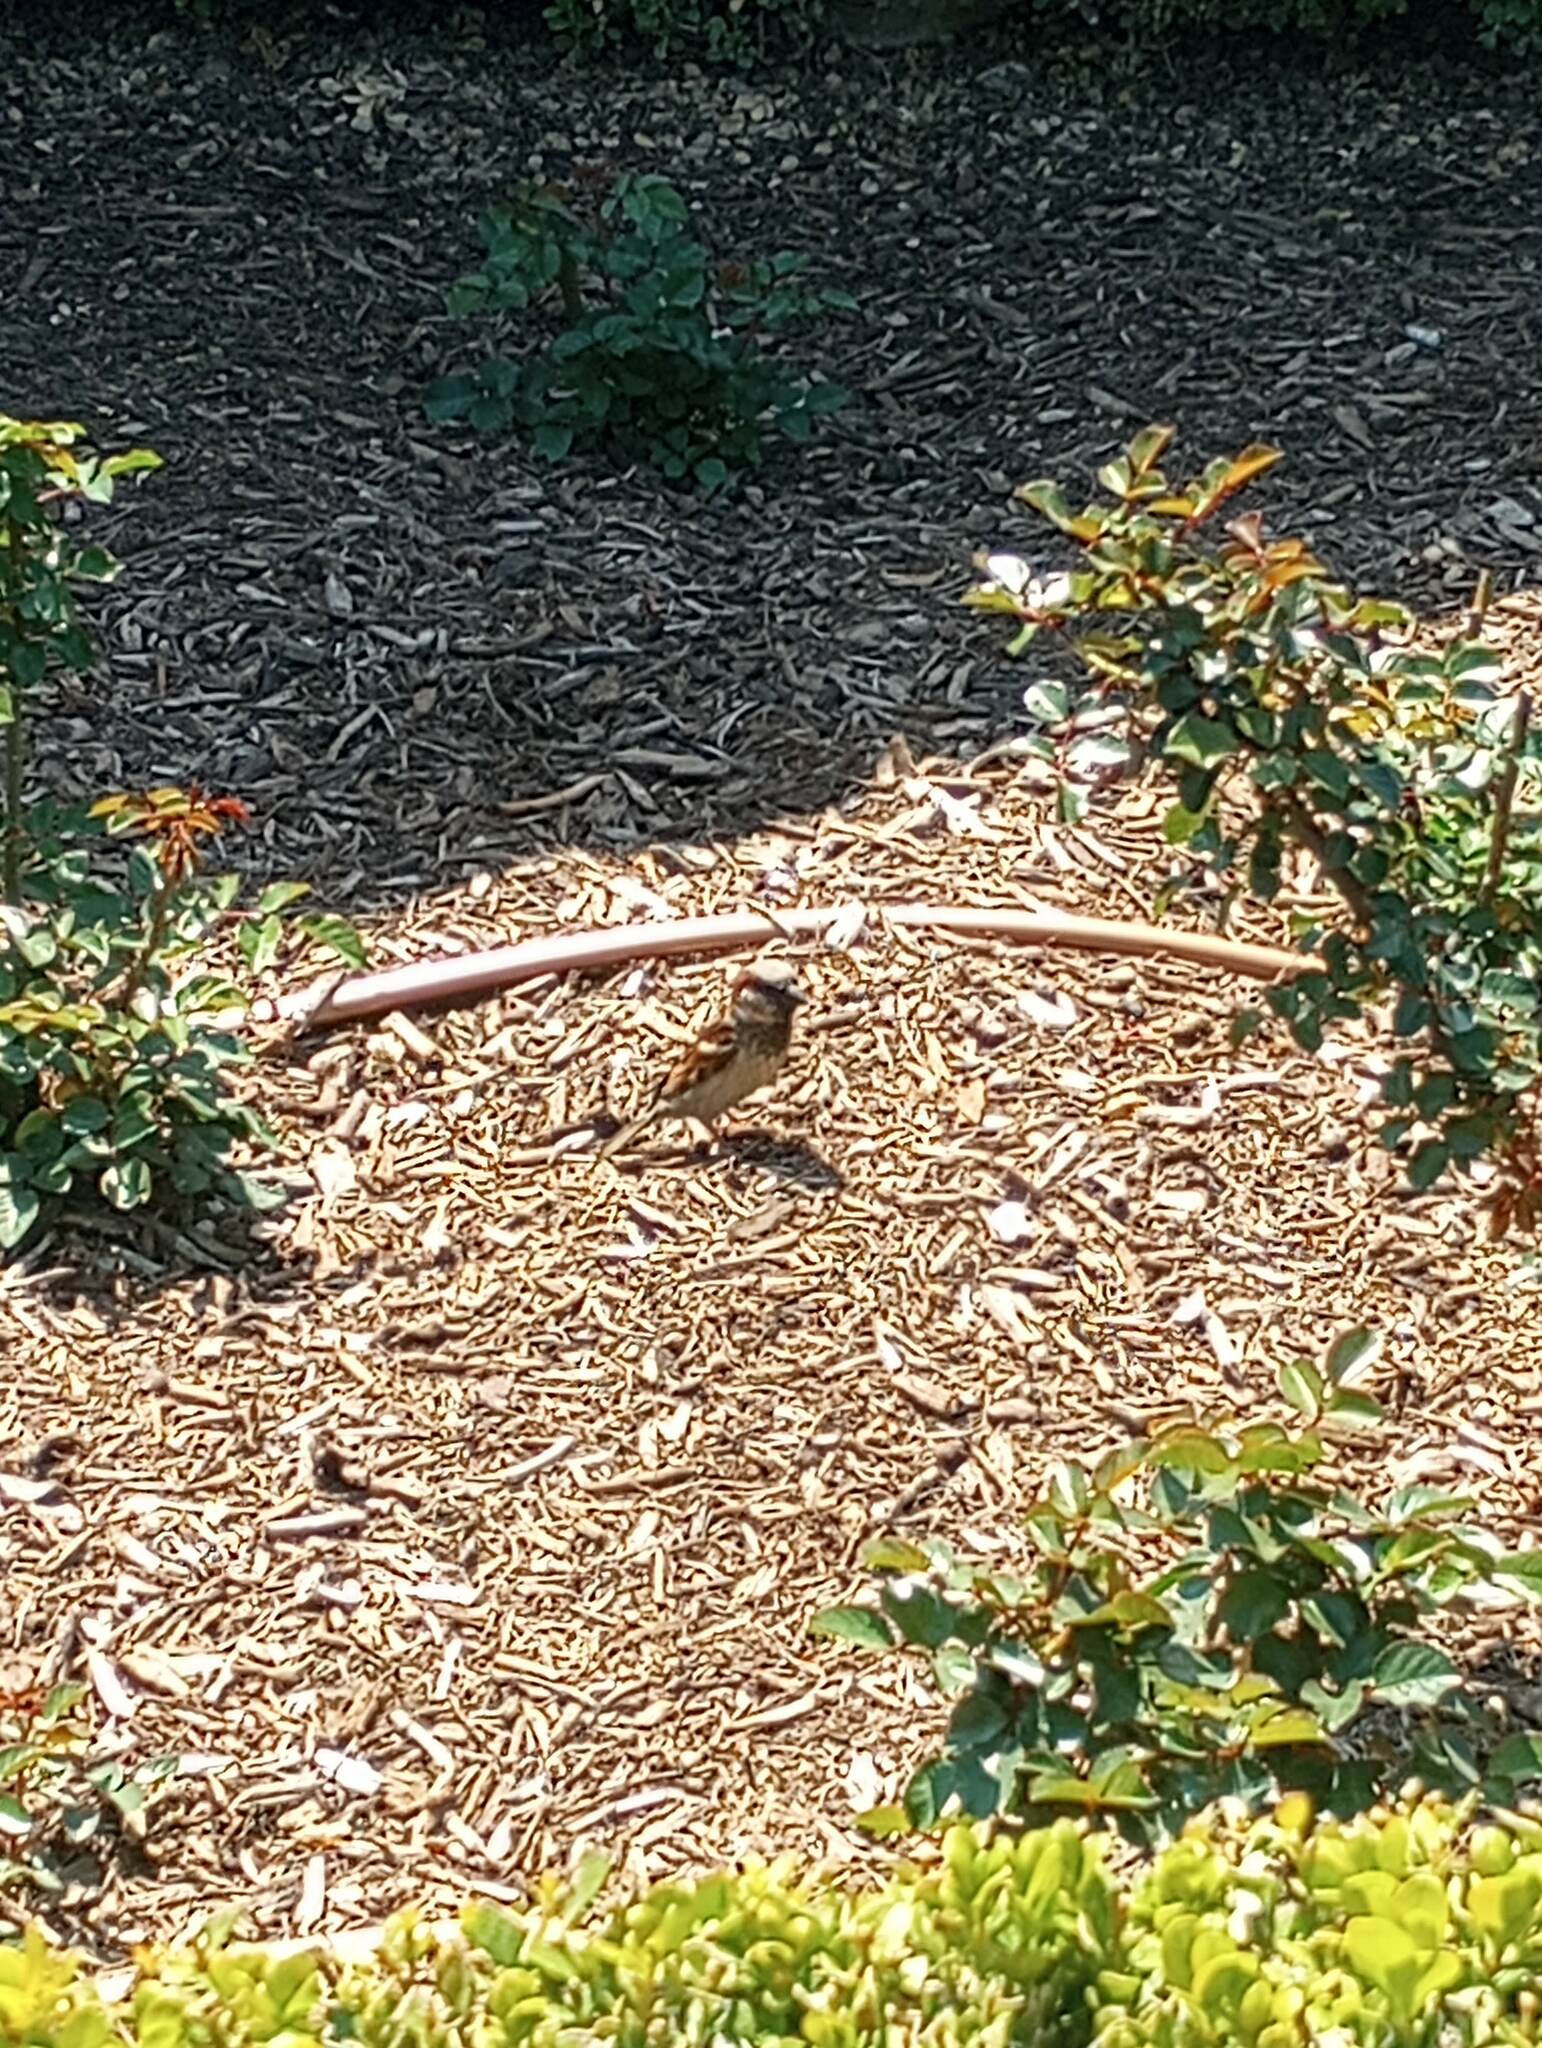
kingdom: Animalia
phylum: Chordata
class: Aves
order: Passeriformes
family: Passeridae
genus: Passer
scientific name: Passer domesticus
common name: House sparrow
